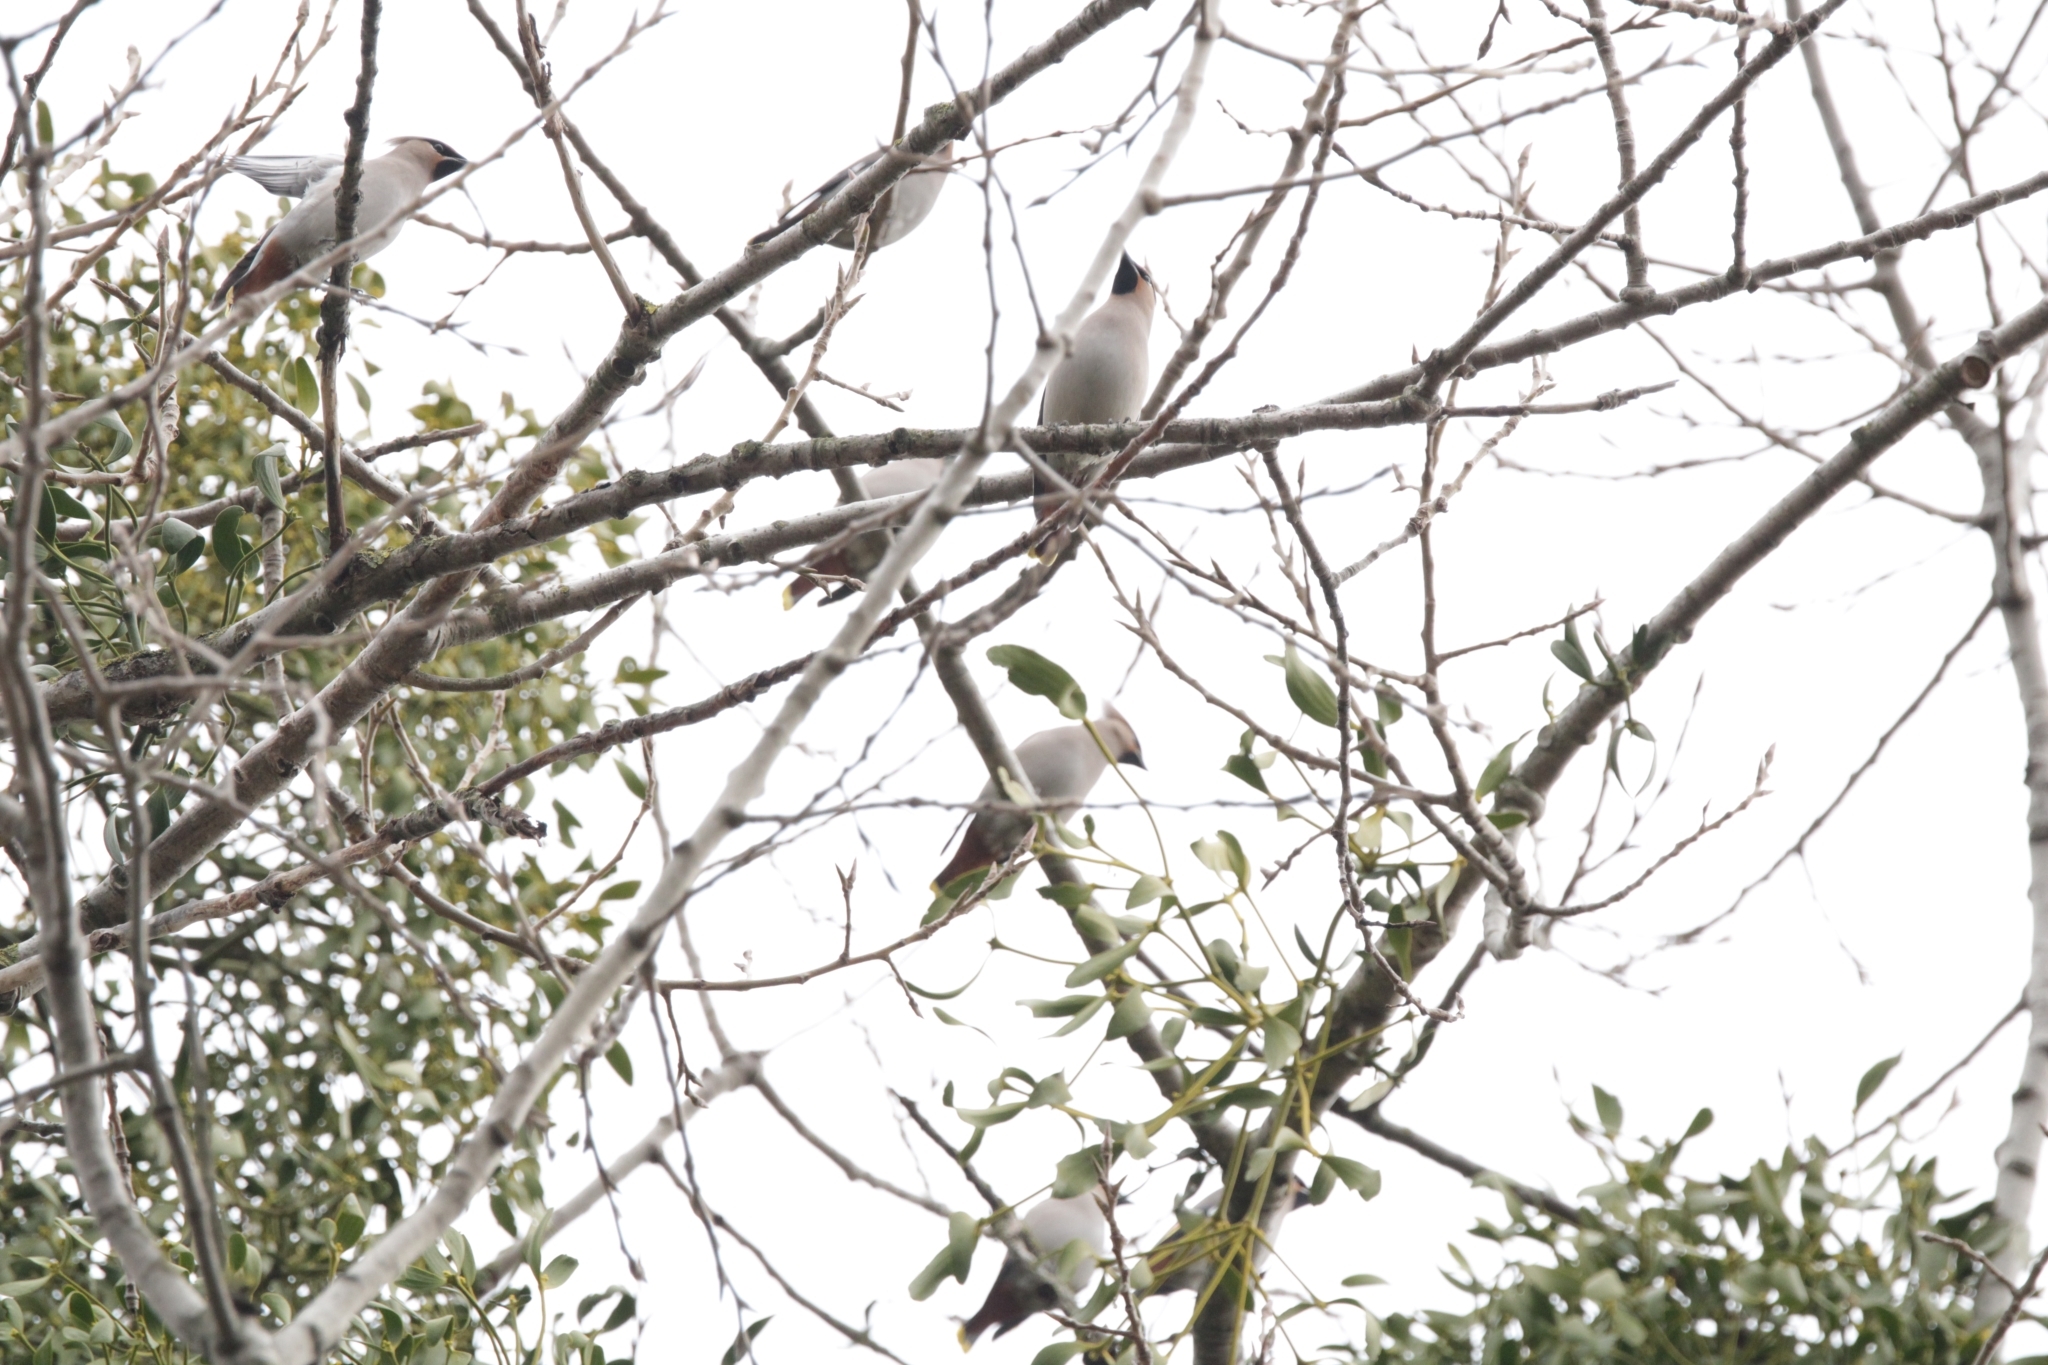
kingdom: Animalia
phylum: Chordata
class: Aves
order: Passeriformes
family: Bombycillidae
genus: Bombycilla
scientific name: Bombycilla garrulus
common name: Bohemian waxwing
